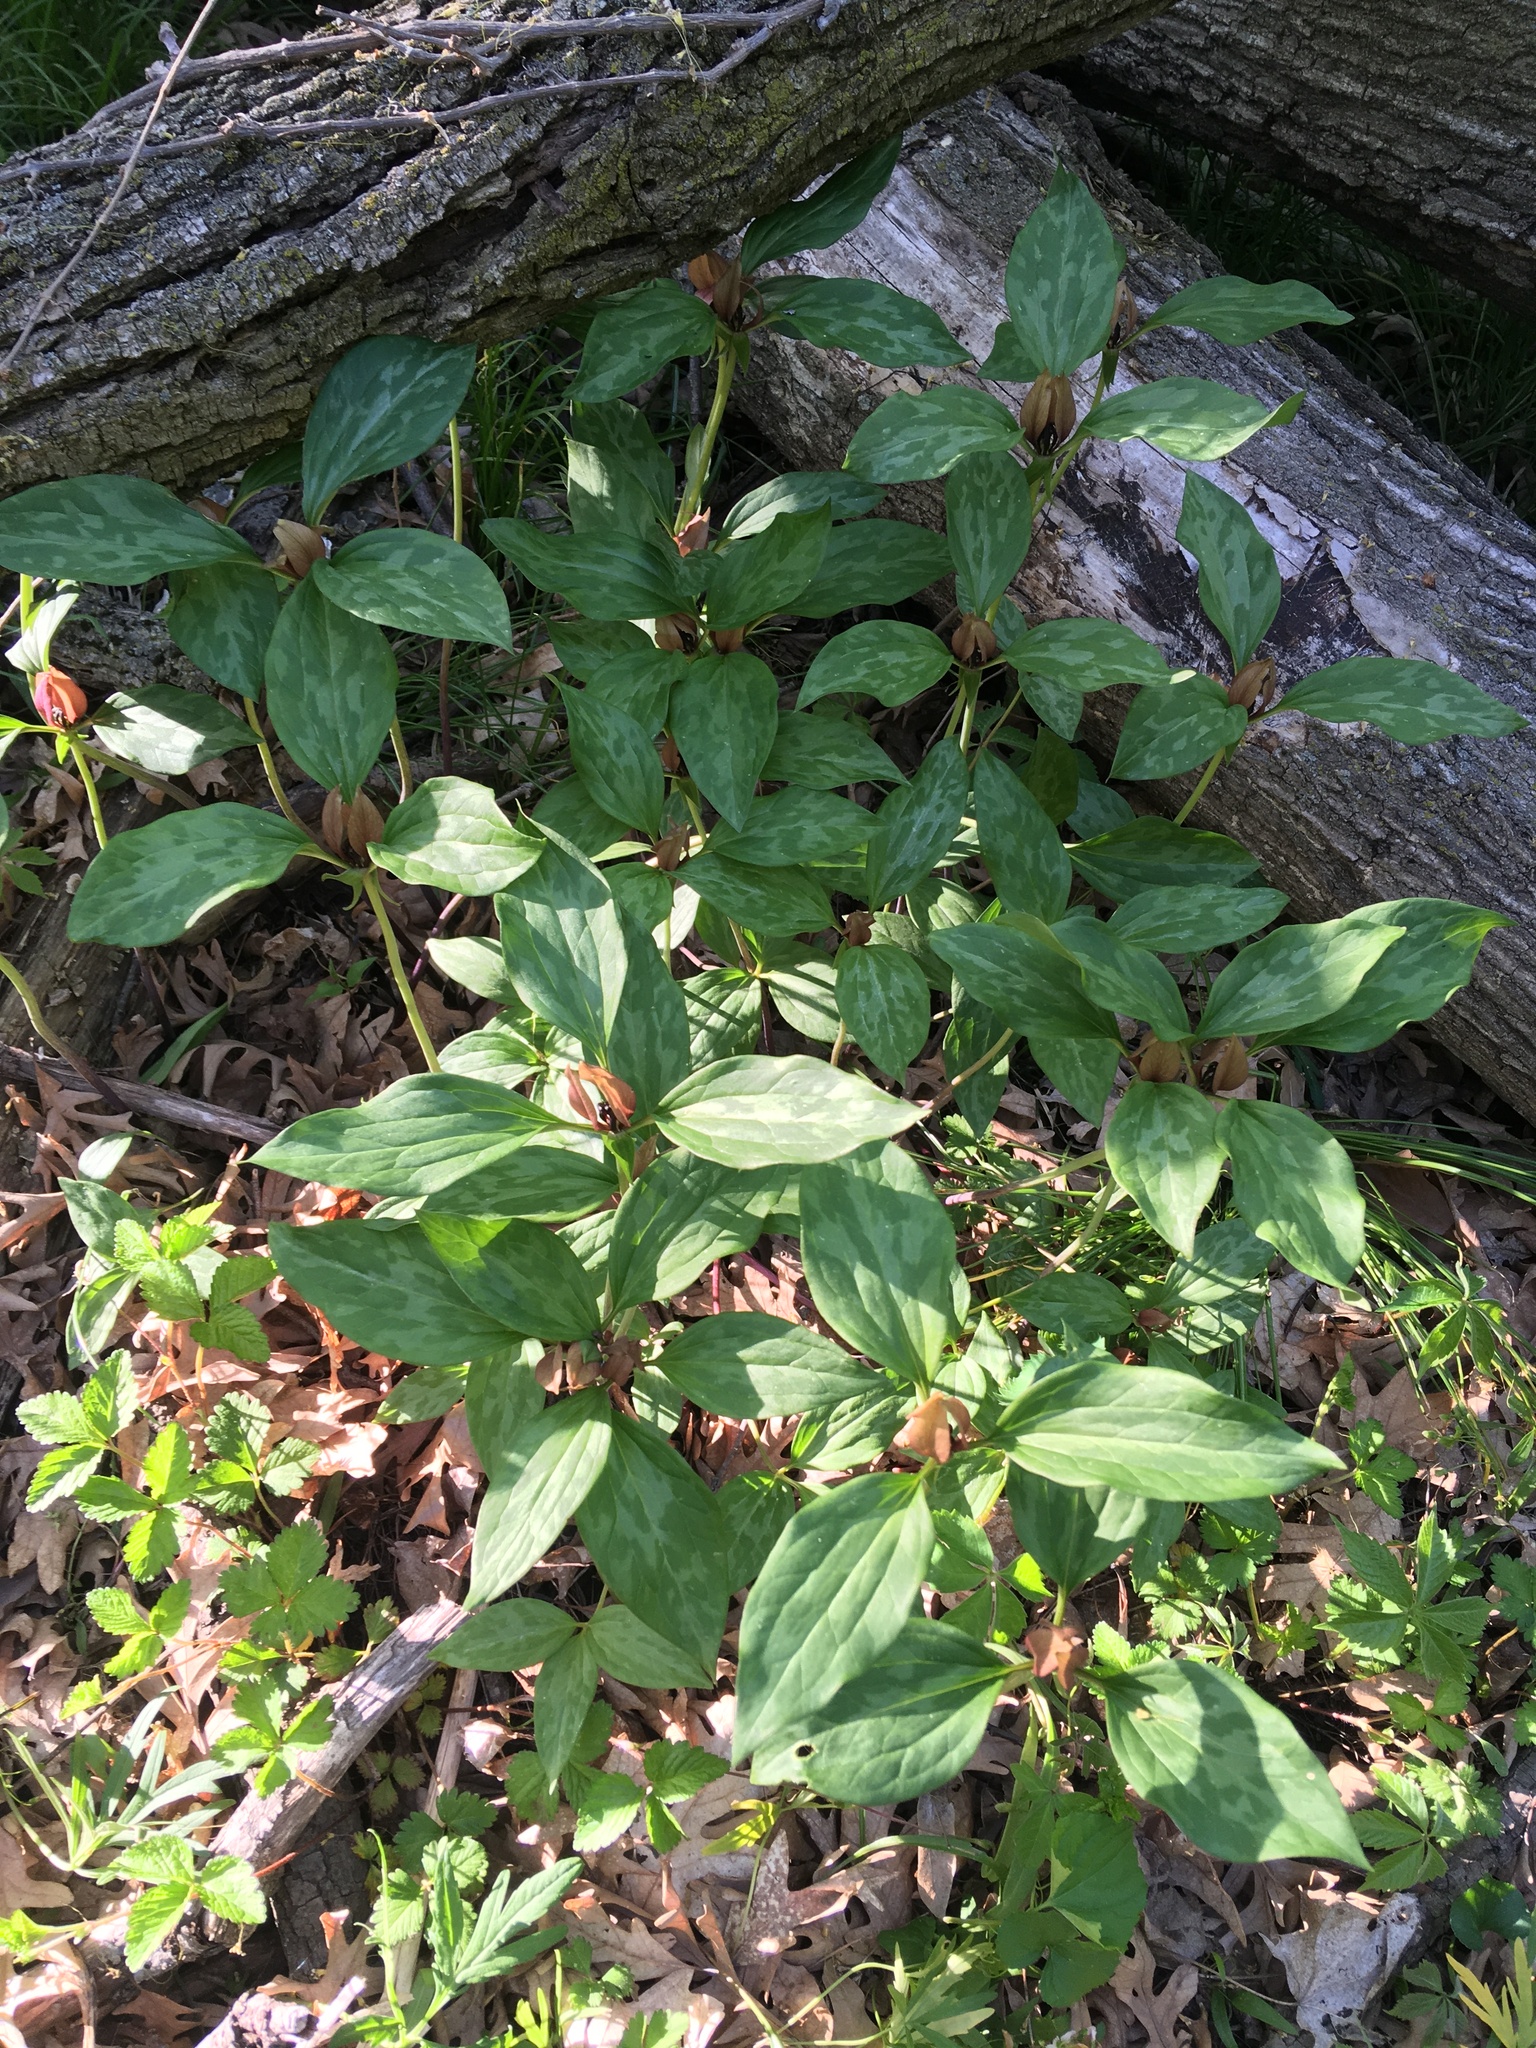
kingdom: Plantae
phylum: Tracheophyta
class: Liliopsida
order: Liliales
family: Melanthiaceae
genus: Trillium
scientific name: Trillium recurvatum
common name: Bloody butcher
